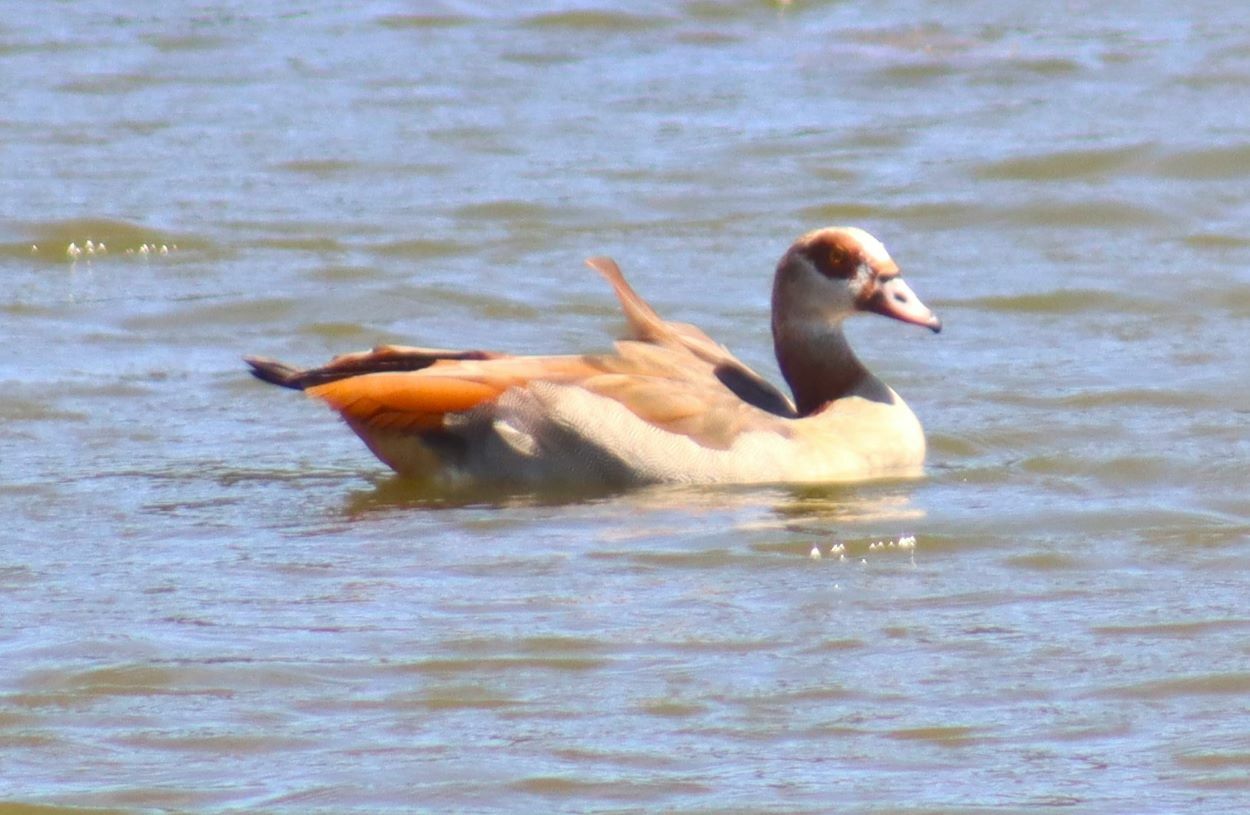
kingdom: Animalia
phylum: Chordata
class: Aves
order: Anseriformes
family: Anatidae
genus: Alopochen
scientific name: Alopochen aegyptiaca
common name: Egyptian goose
